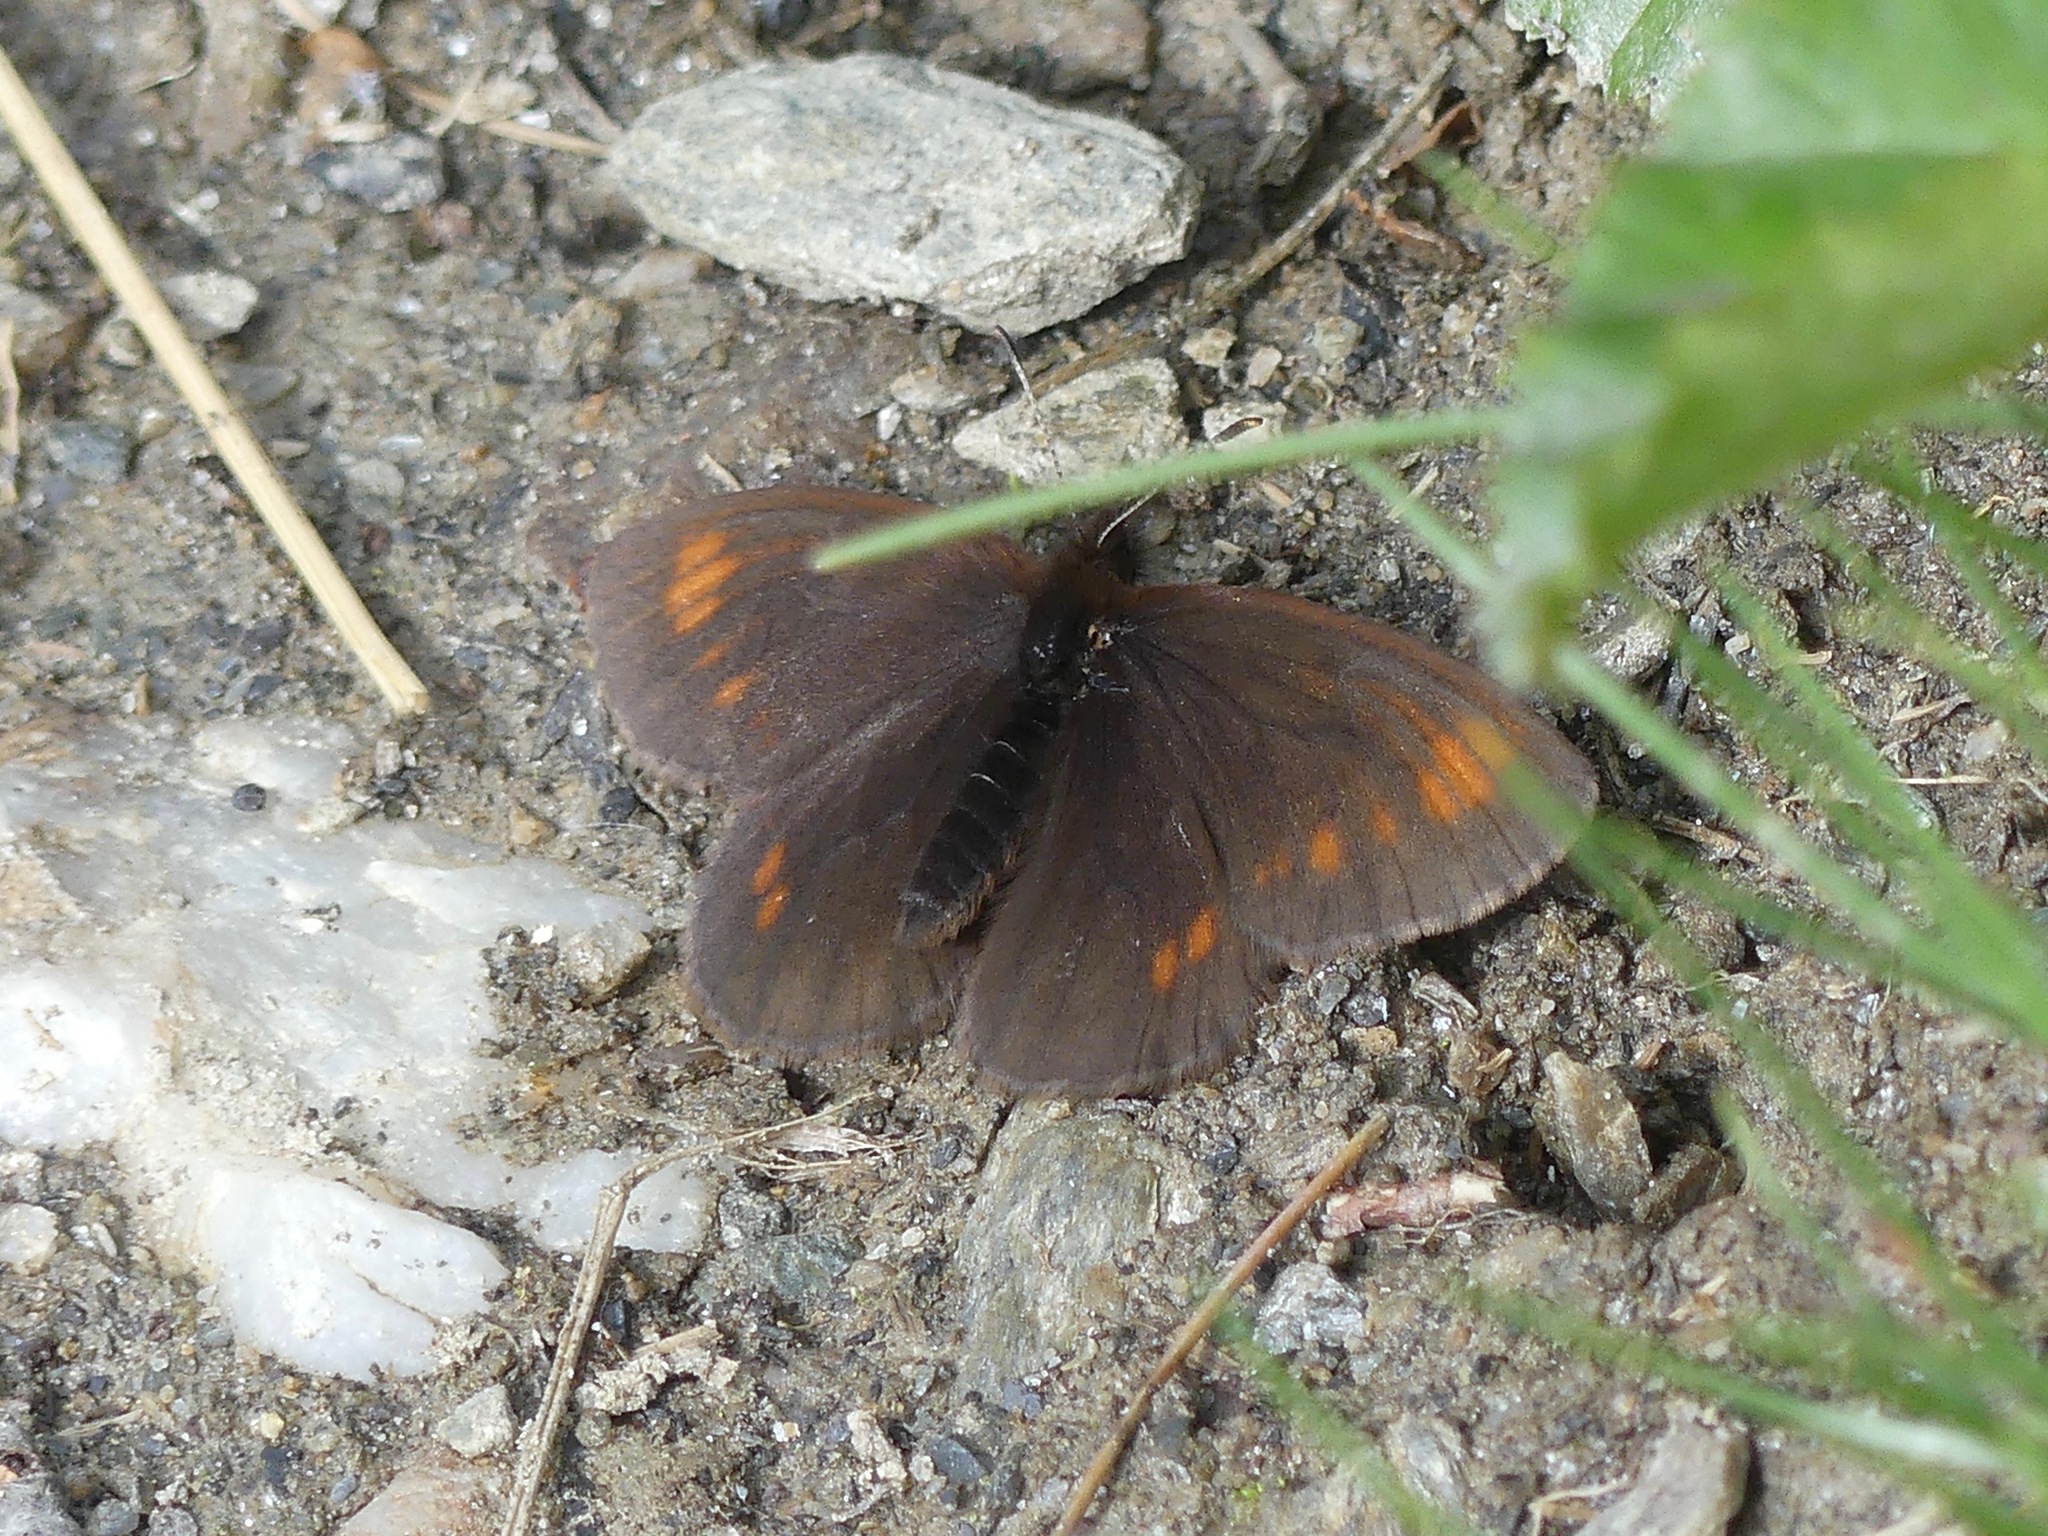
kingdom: Animalia
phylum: Arthropoda
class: Insecta
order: Lepidoptera
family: Nymphalidae
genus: Erebia
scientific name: Erebia pawloskii
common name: Theano alpine
